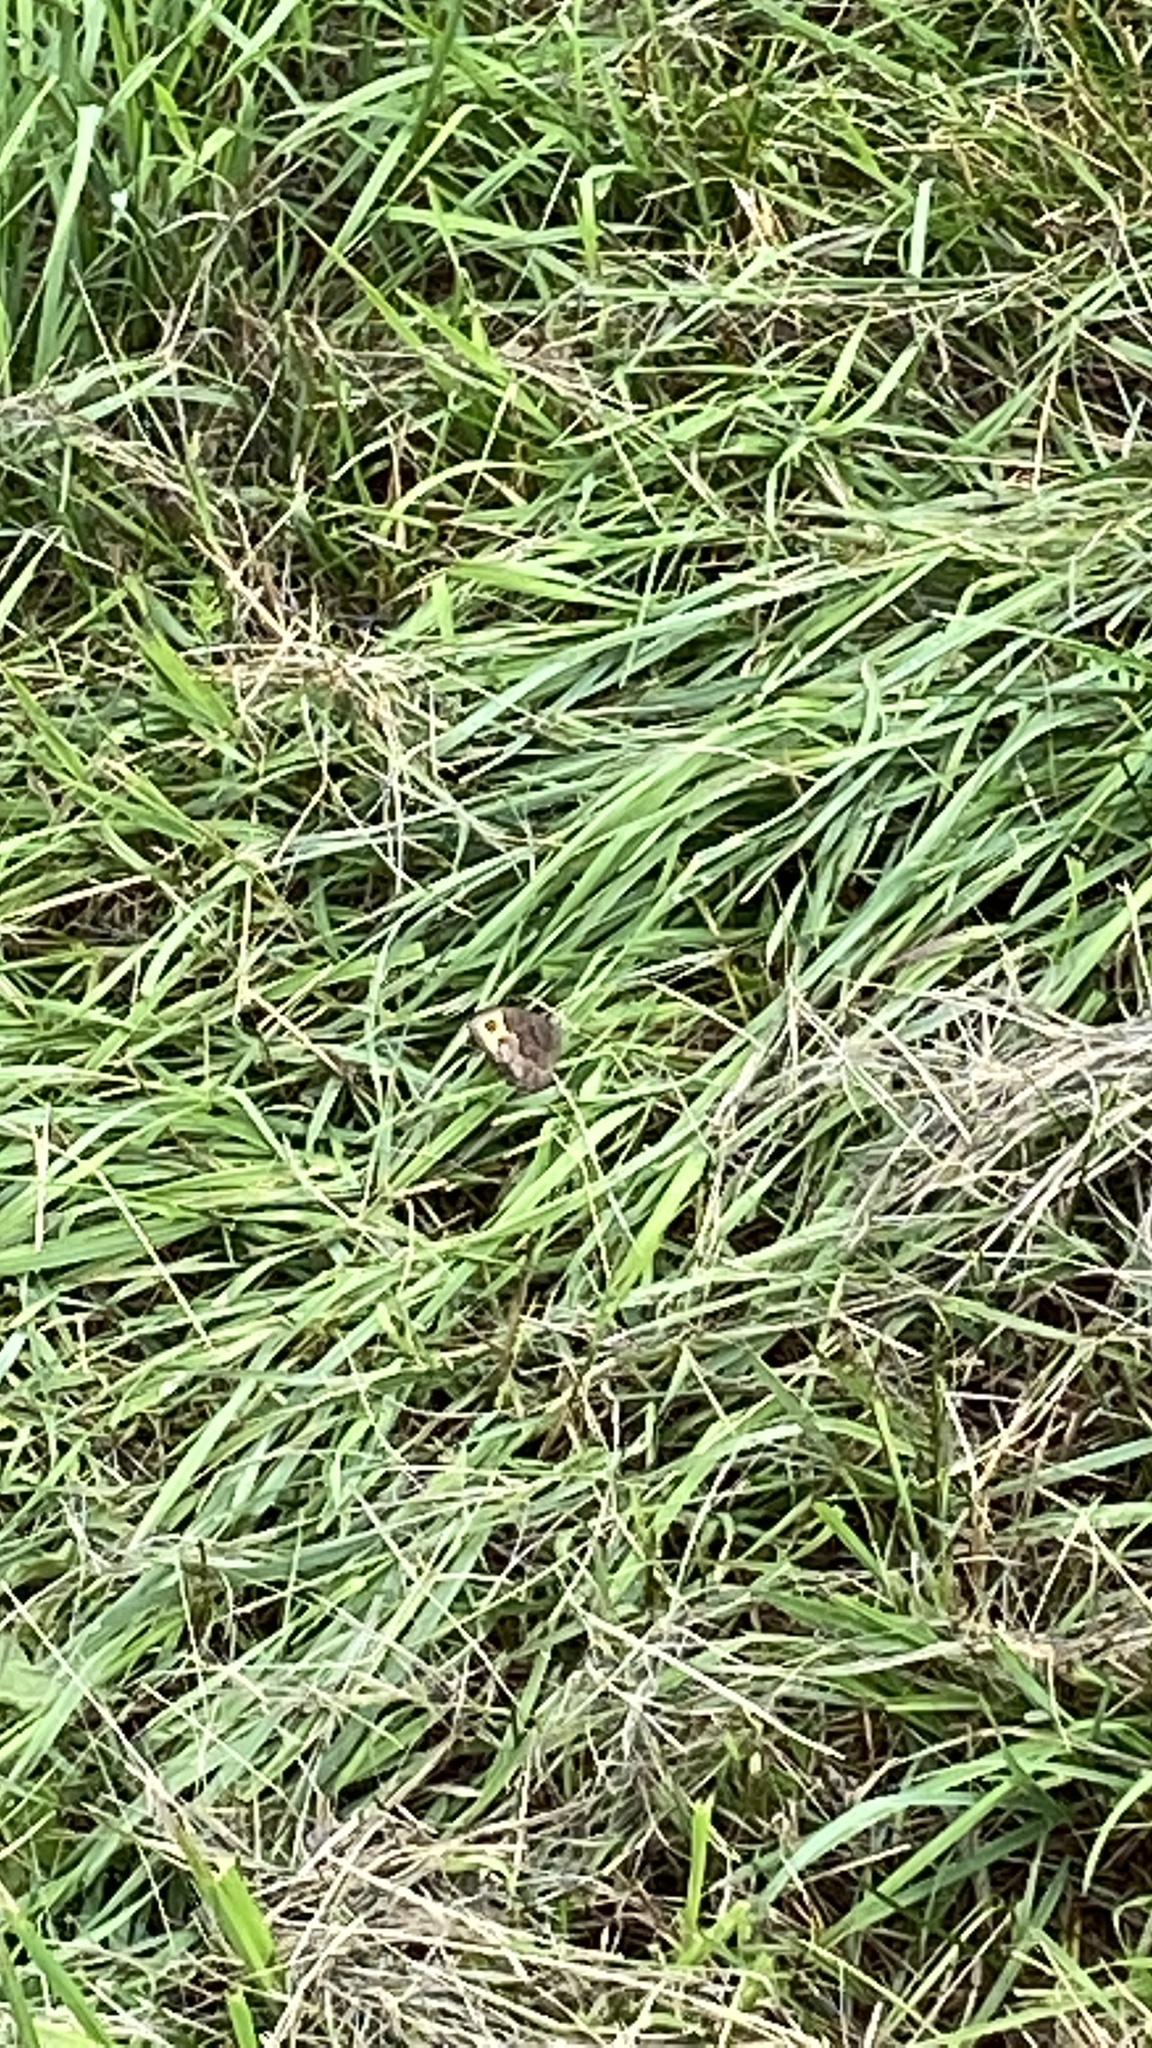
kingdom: Animalia
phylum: Arthropoda
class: Insecta
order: Lepidoptera
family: Nymphalidae
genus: Cercyonis
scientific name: Cercyonis pegala
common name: Common wood-nymph
